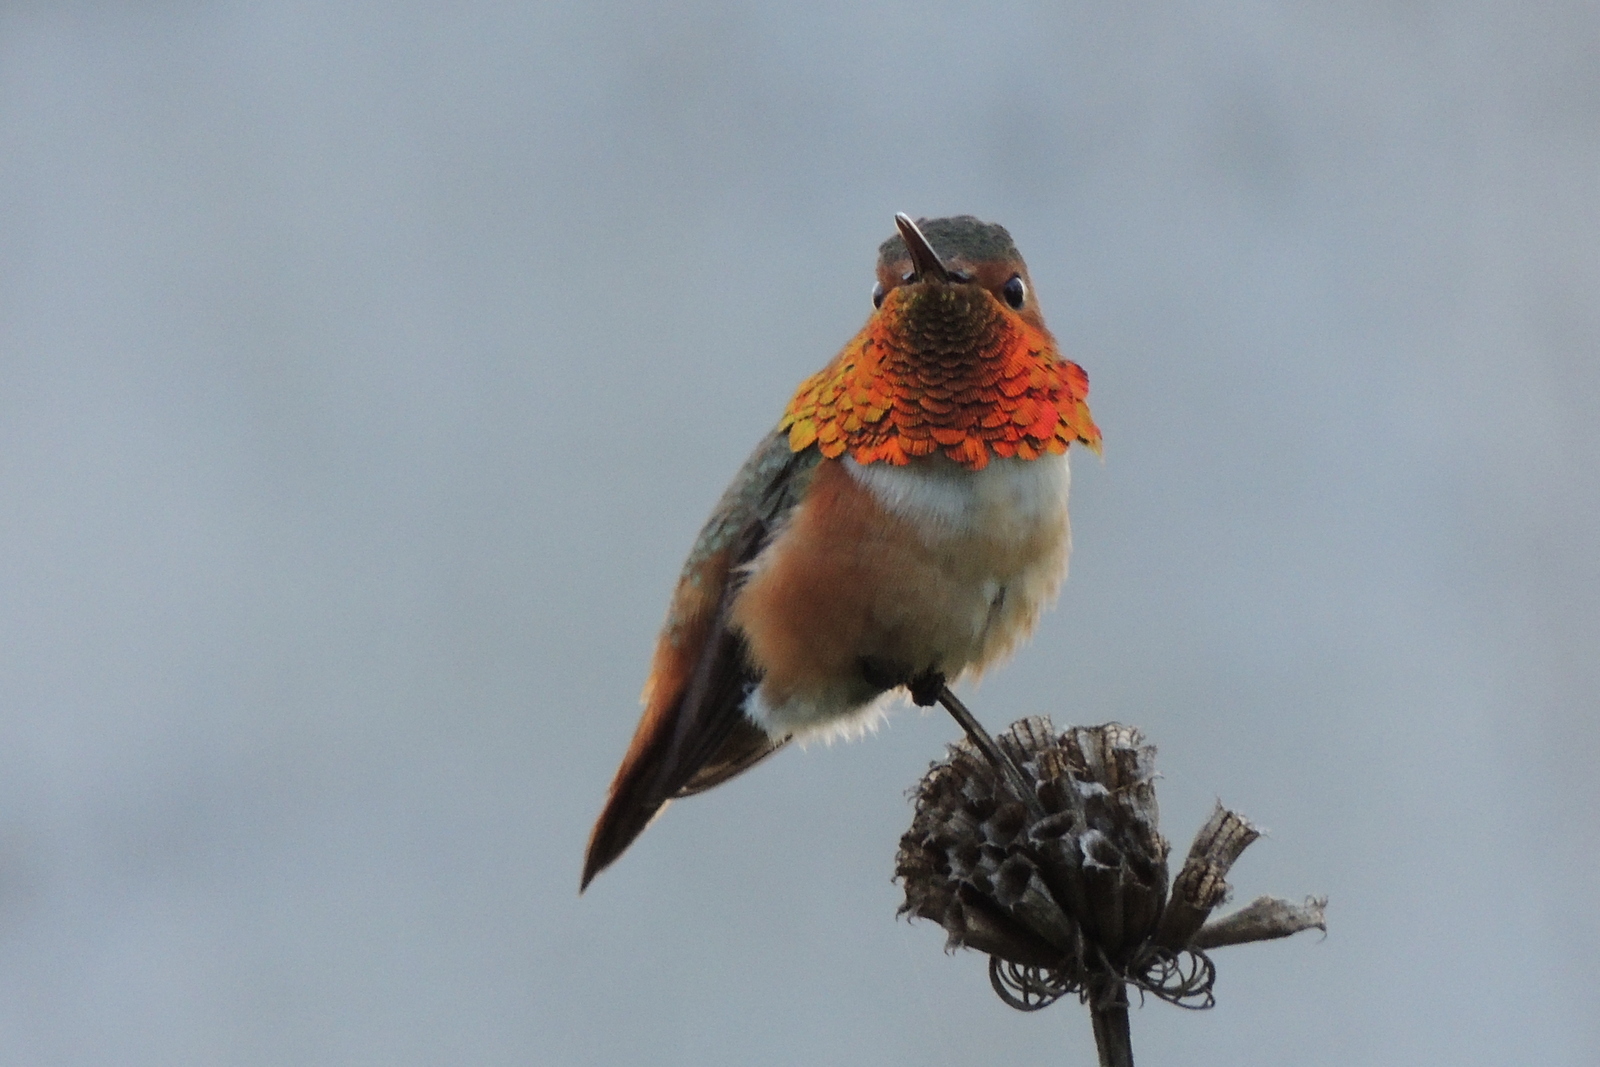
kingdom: Animalia
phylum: Chordata
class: Aves
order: Apodiformes
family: Trochilidae
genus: Selasphorus
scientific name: Selasphorus sasin
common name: Allen's hummingbird
